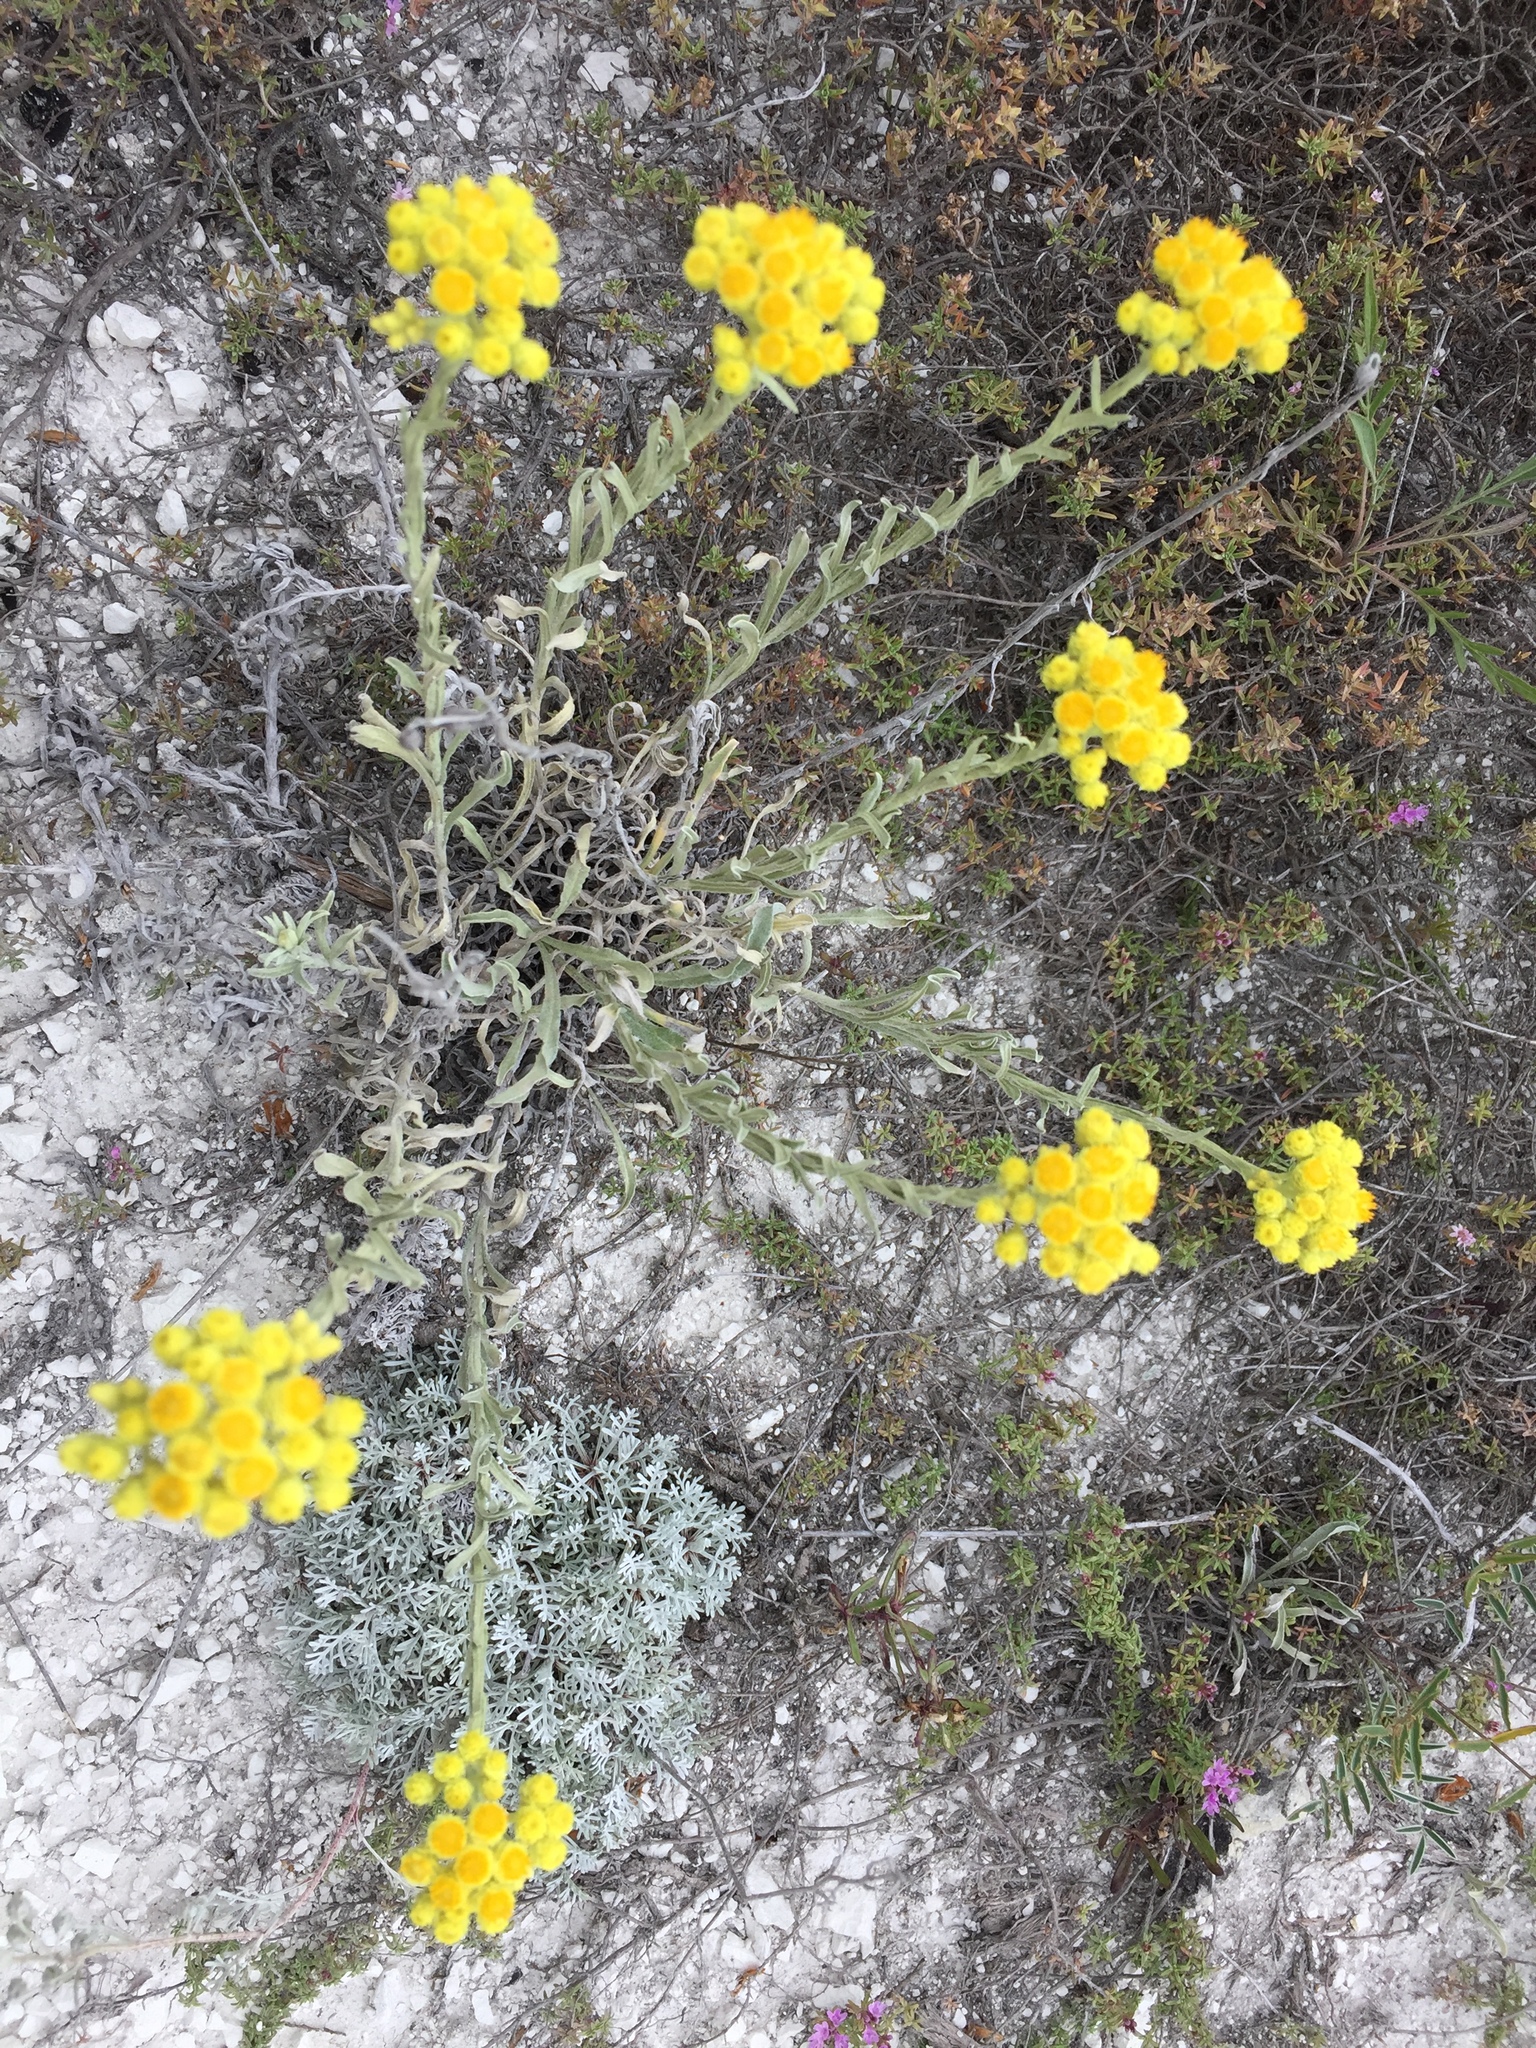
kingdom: Plantae
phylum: Tracheophyta
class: Magnoliopsida
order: Asterales
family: Asteraceae
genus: Helichrysum
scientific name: Helichrysum arenarium
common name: Strawflower
